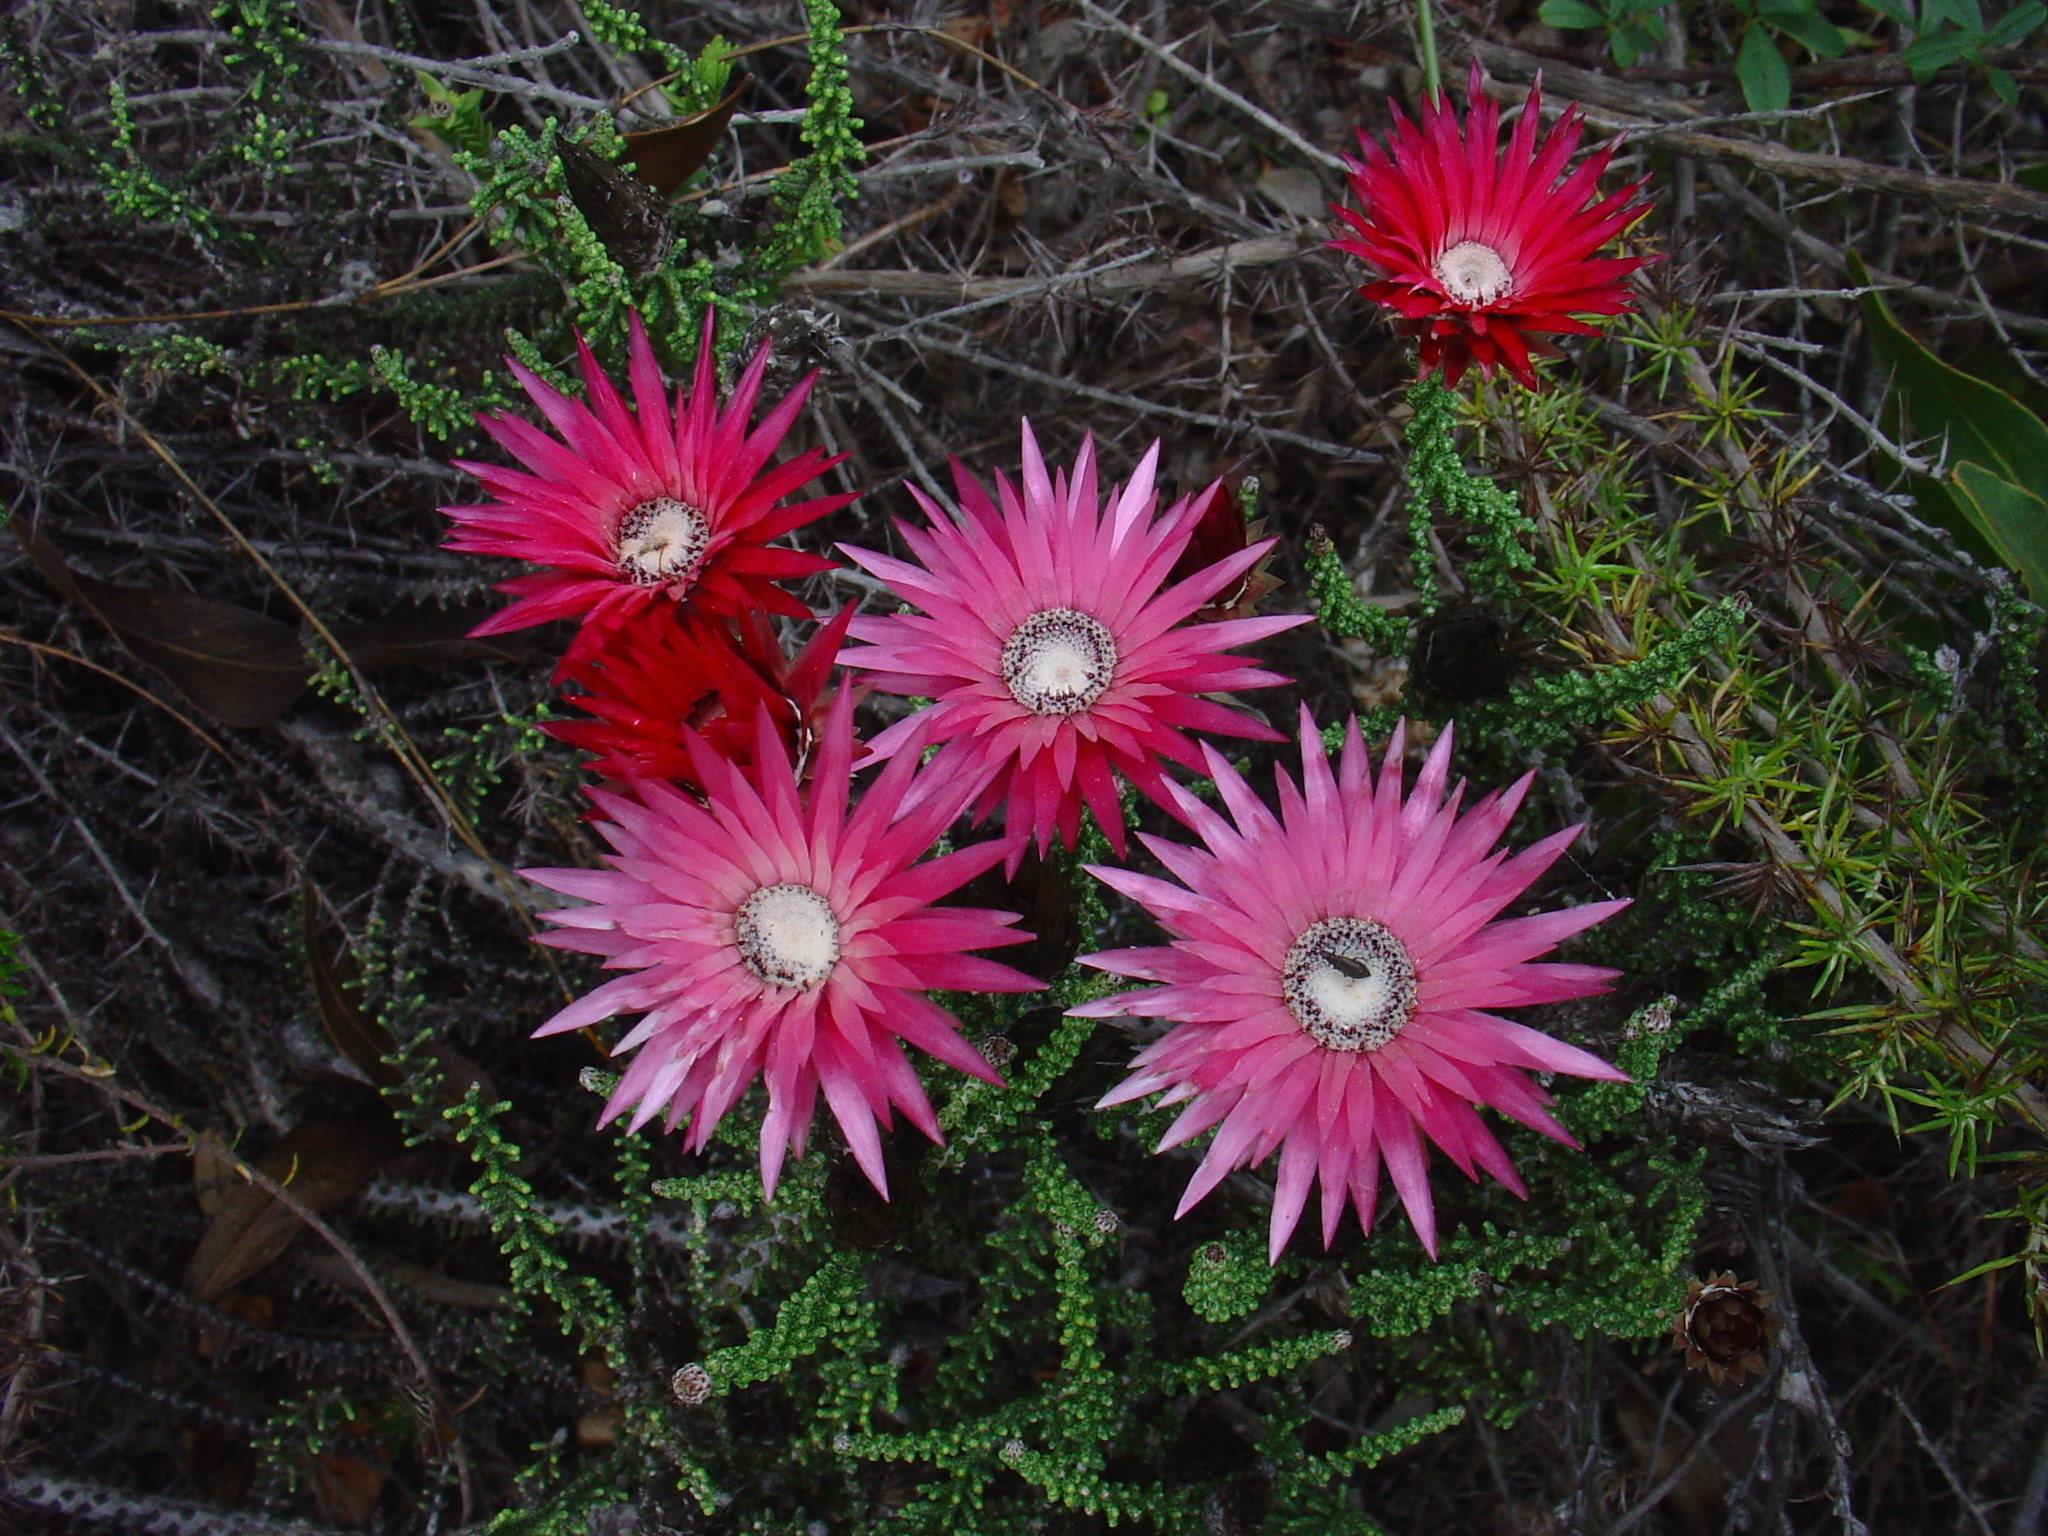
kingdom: Plantae
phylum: Tracheophyta
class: Magnoliopsida
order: Asterales
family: Asteraceae
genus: Phaenocoma
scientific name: Phaenocoma prolifera
